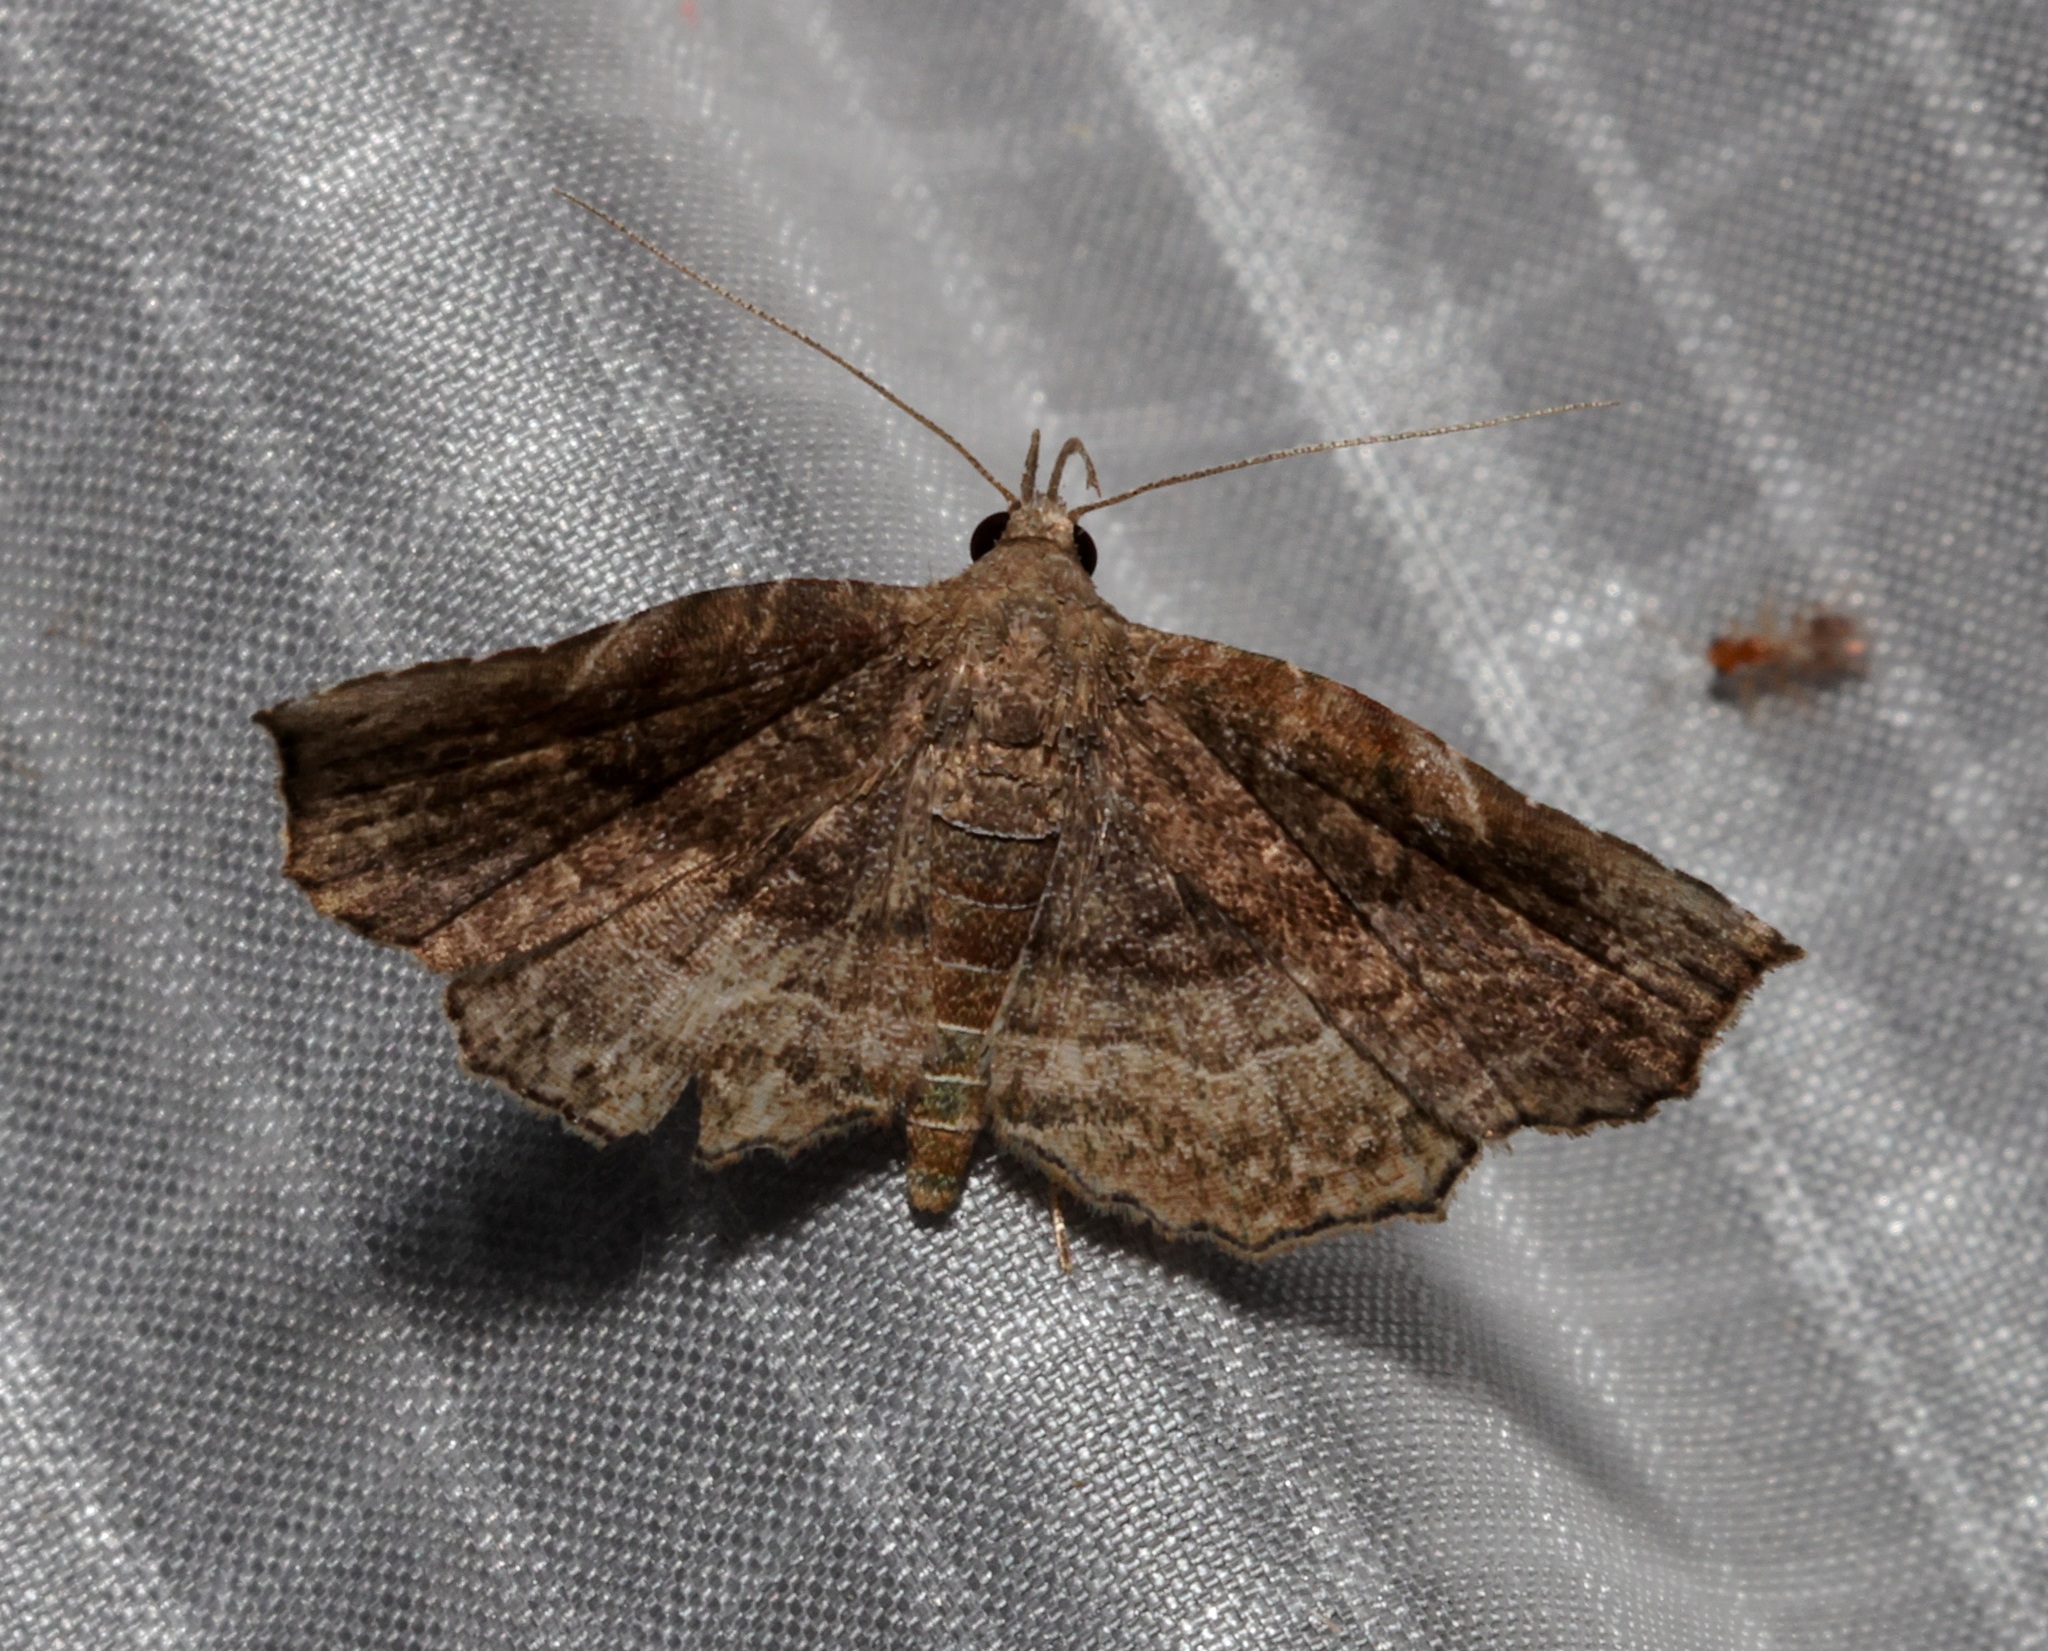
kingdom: Animalia
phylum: Arthropoda
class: Insecta
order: Lepidoptera
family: Erebidae
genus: Nagadeba
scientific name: Nagadeba indecoralis
